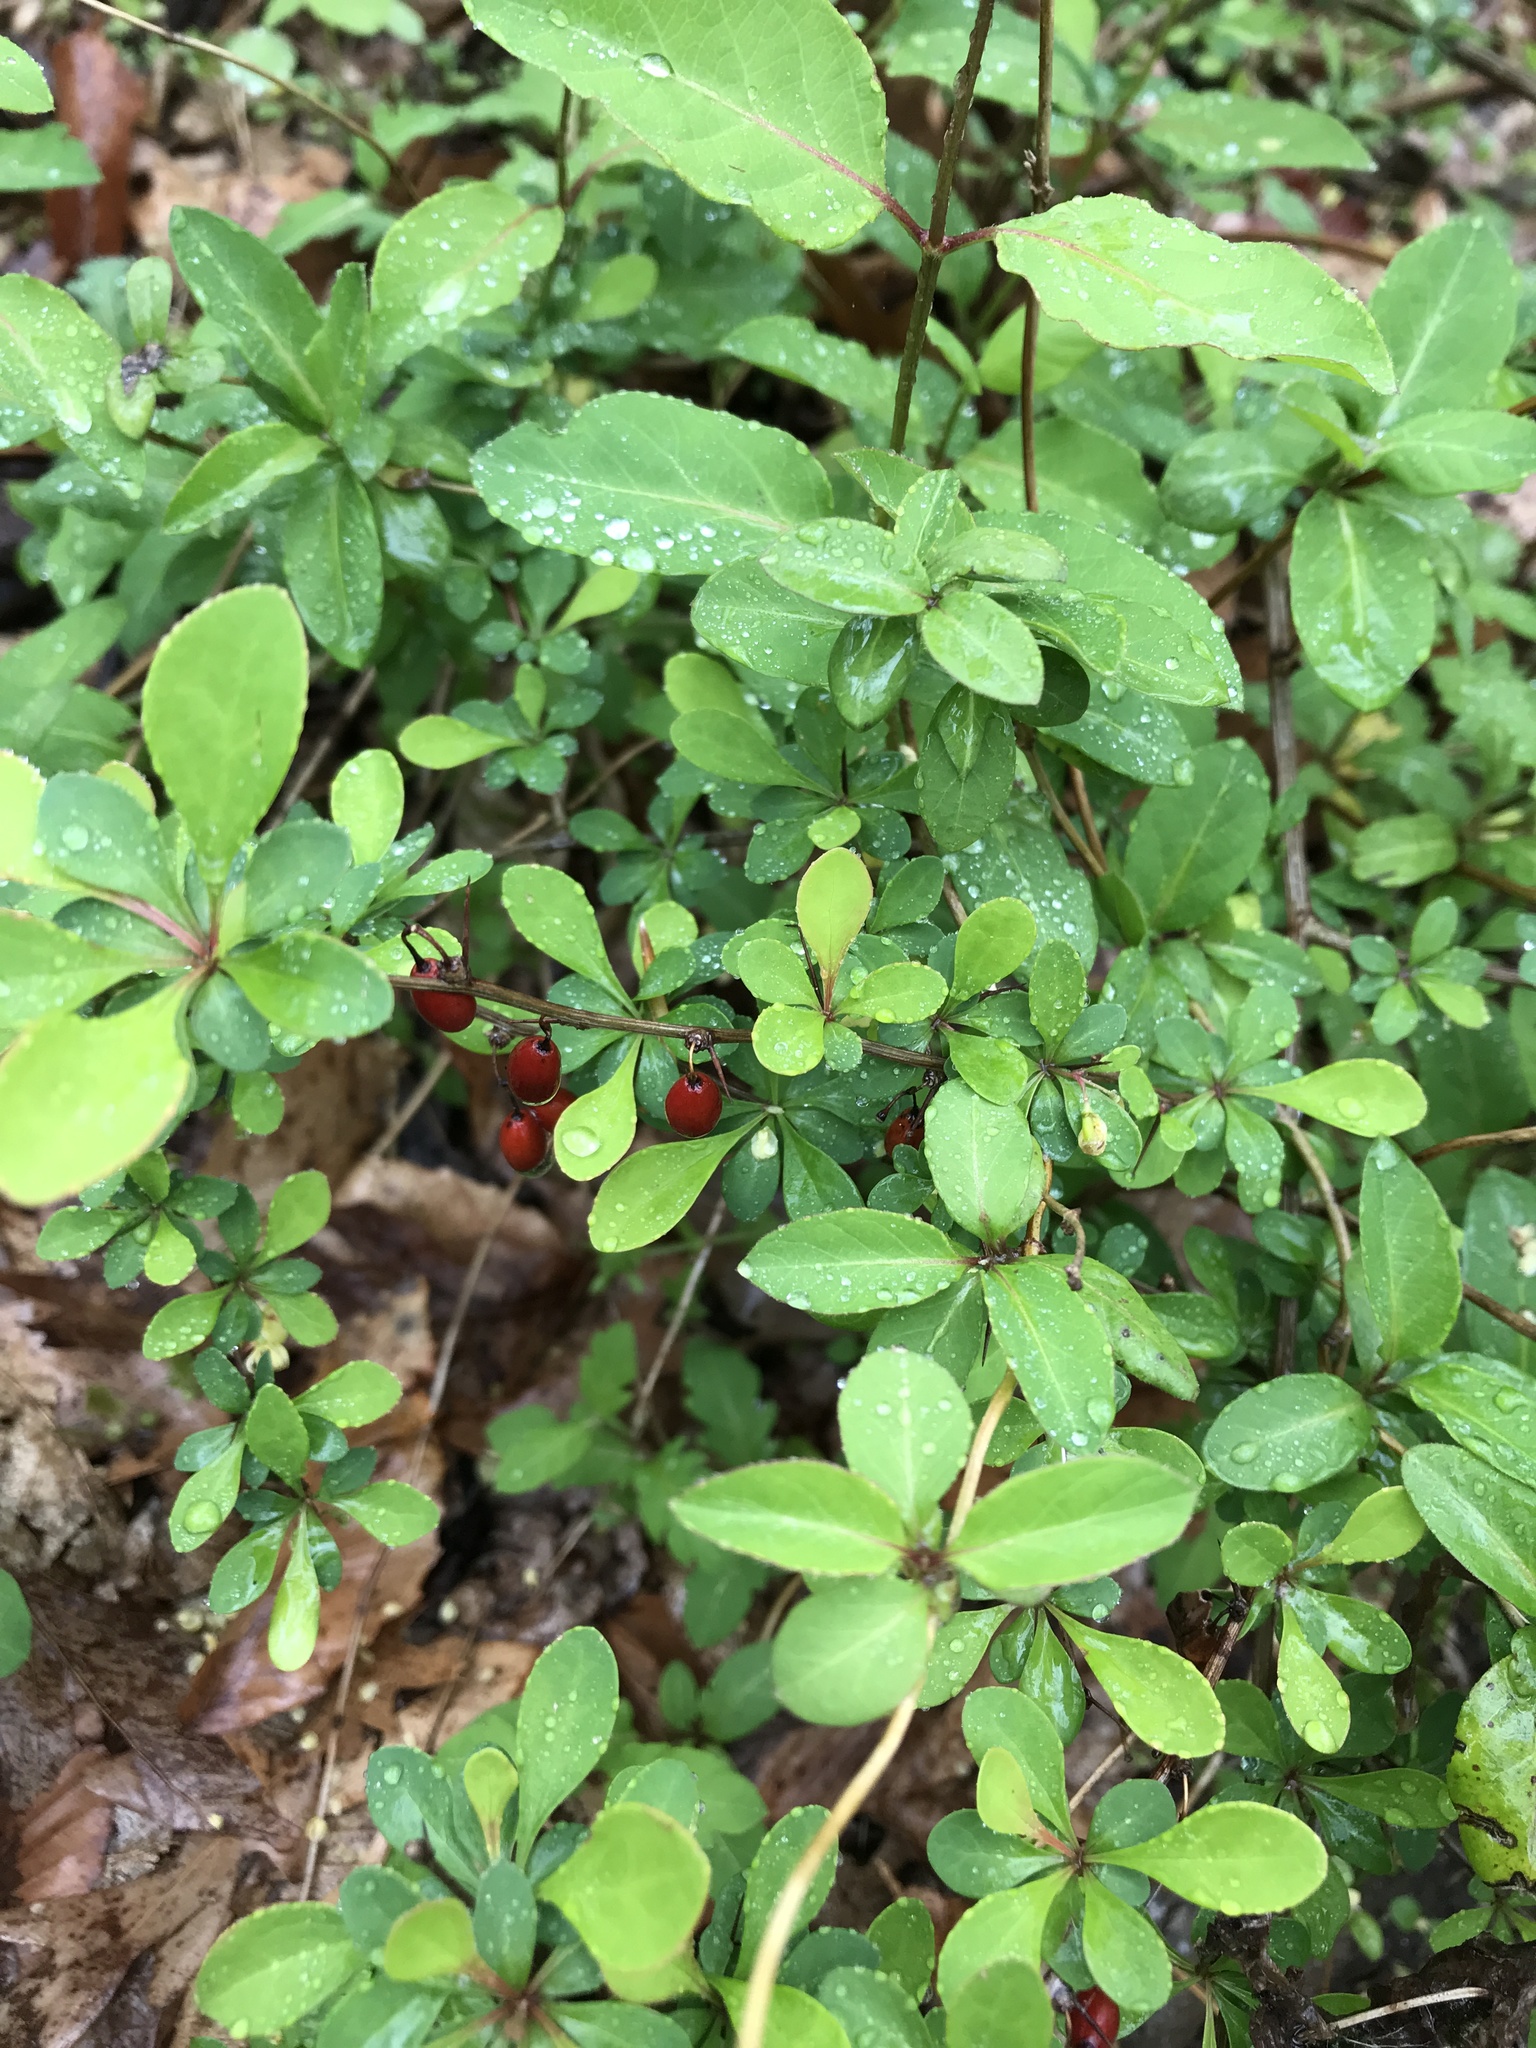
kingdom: Plantae
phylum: Tracheophyta
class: Magnoliopsida
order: Ranunculales
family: Berberidaceae
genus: Berberis
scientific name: Berberis thunbergii
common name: Japanese barberry
